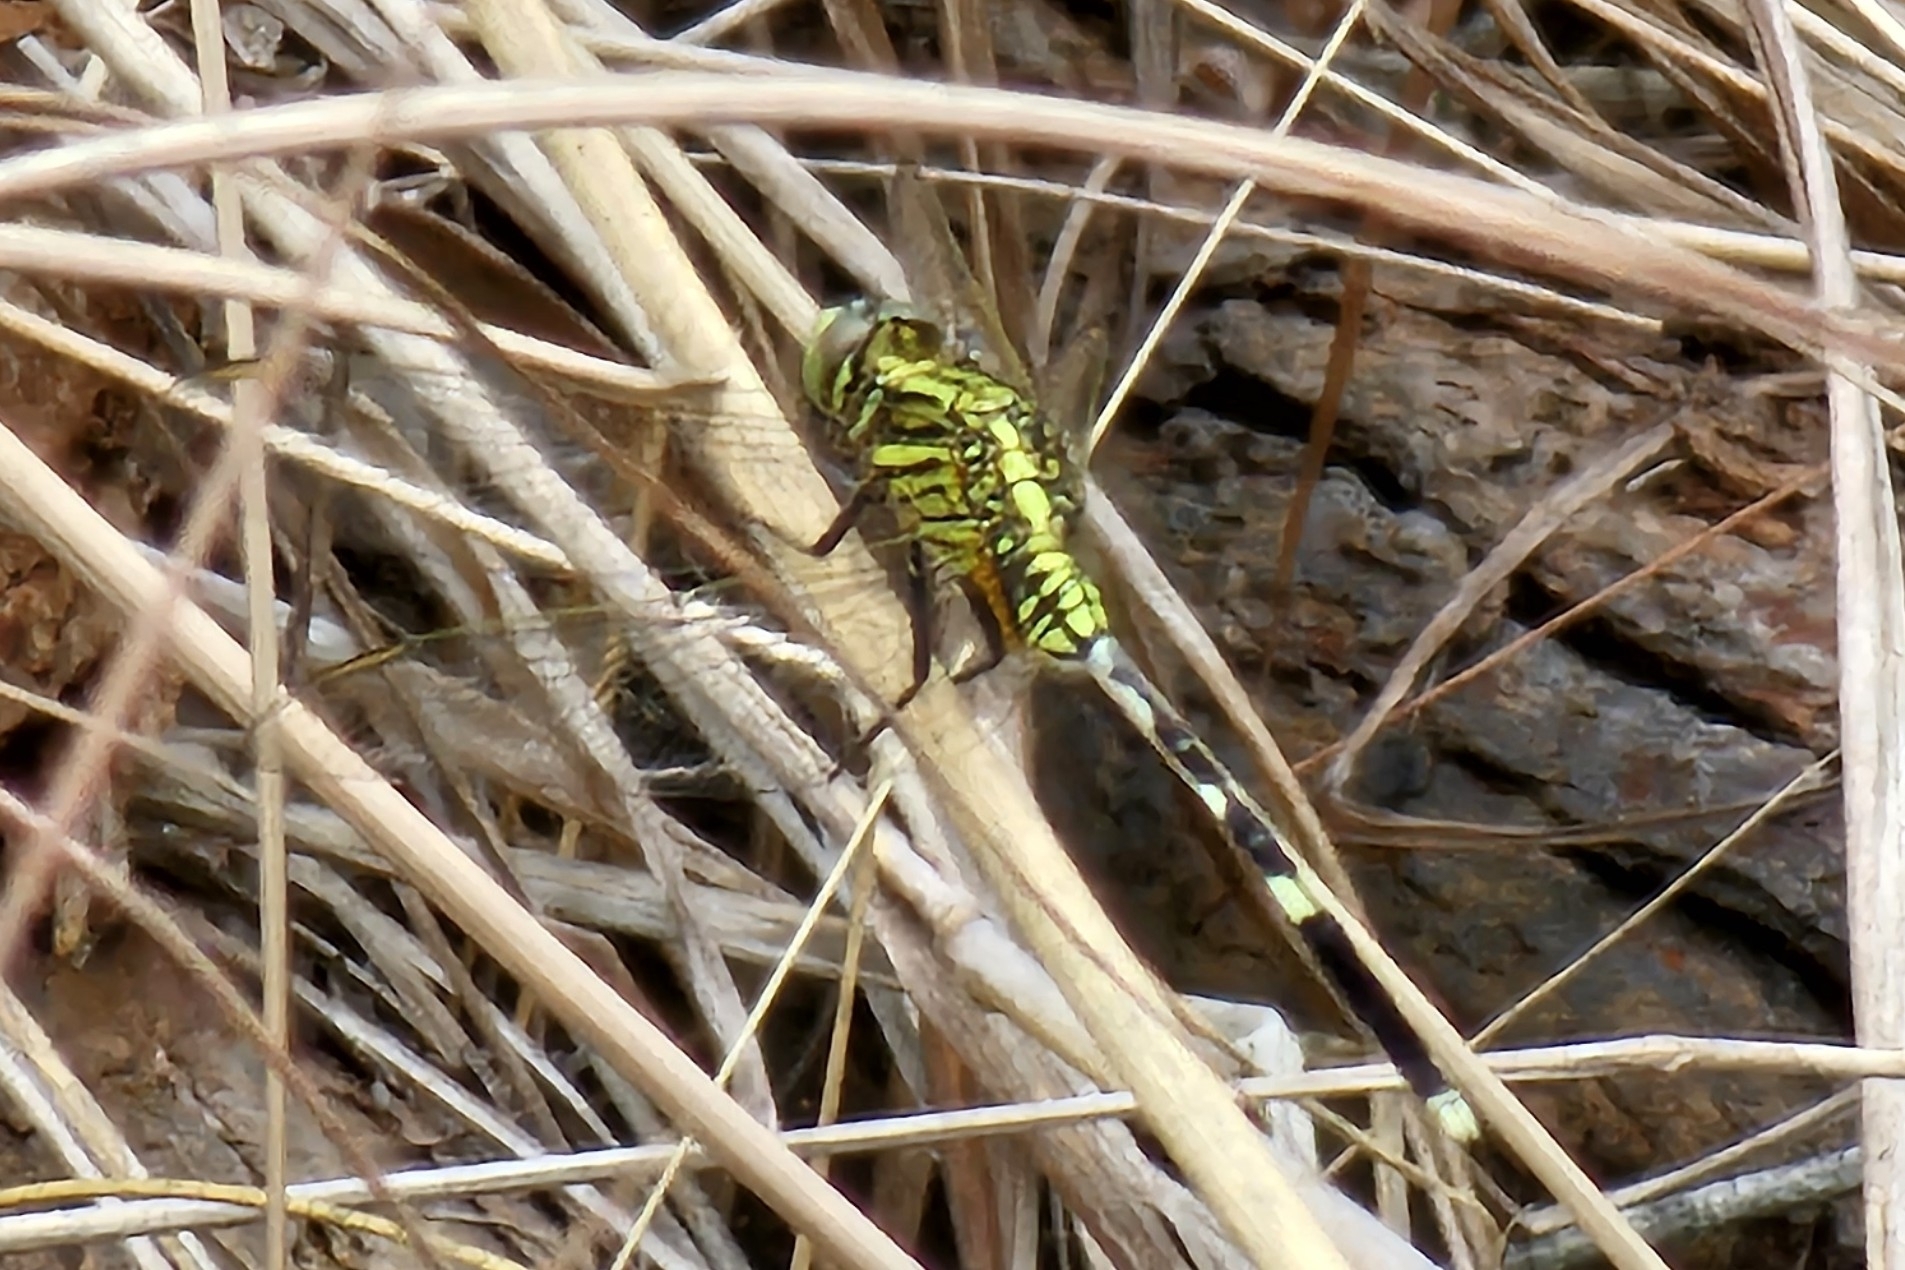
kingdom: Animalia
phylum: Arthropoda
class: Insecta
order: Odonata
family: Libellulidae
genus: Orthetrum
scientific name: Orthetrum sabina
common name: Slender skimmer
